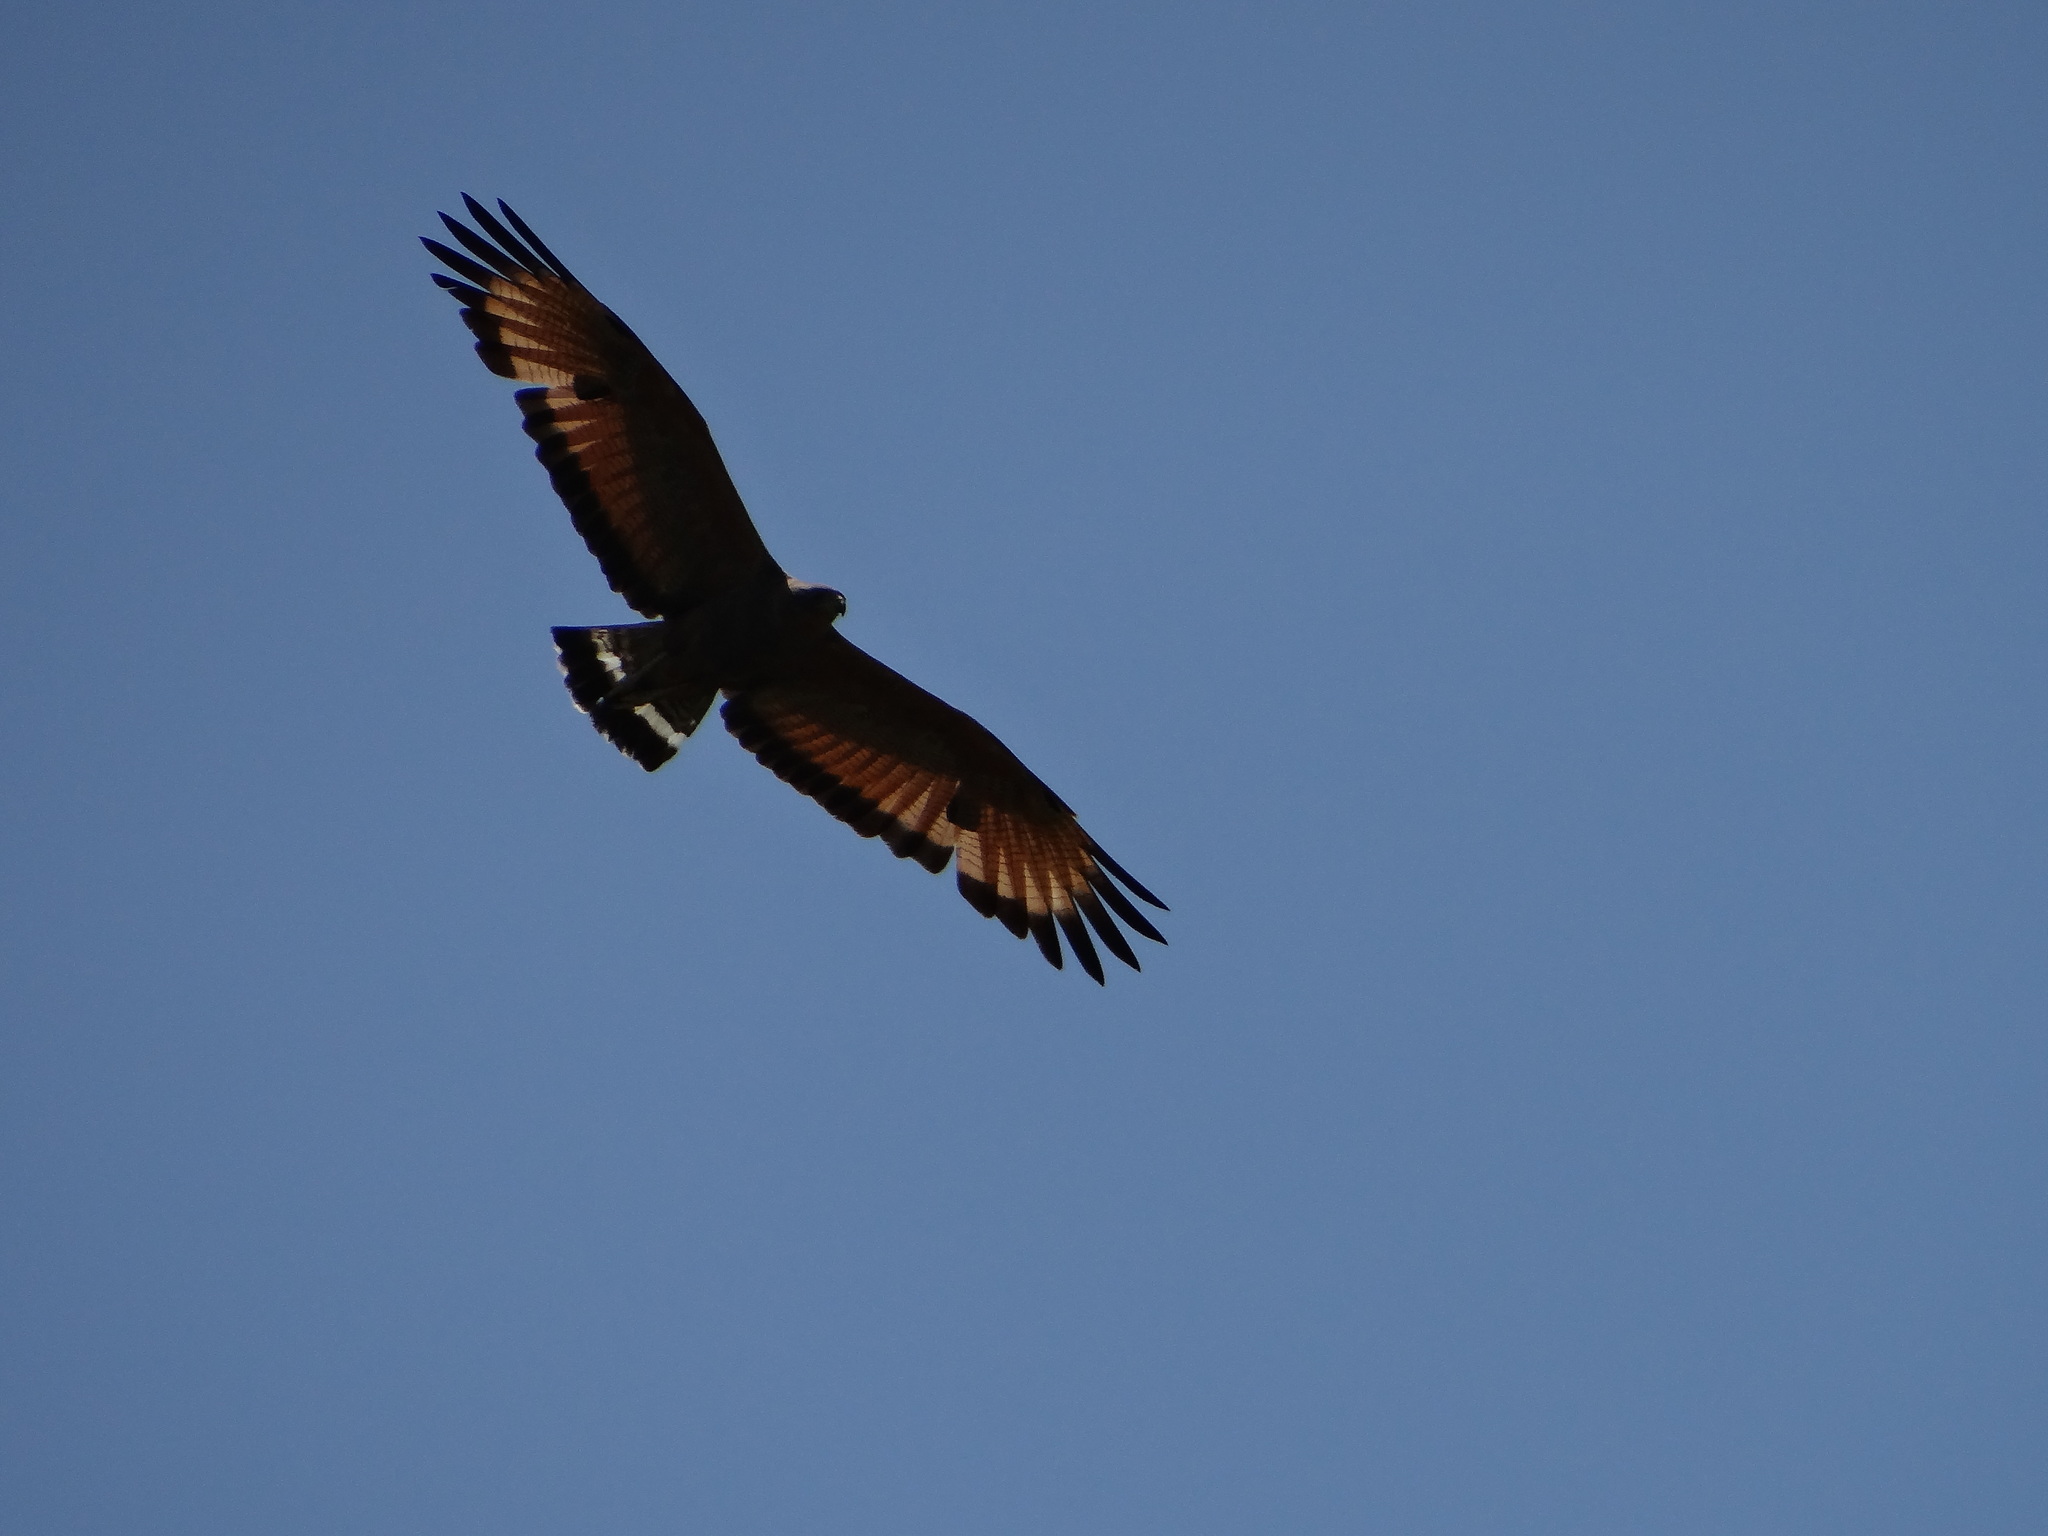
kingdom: Animalia
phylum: Chordata
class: Aves
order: Accipitriformes
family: Accipitridae
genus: Buteogallus
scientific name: Buteogallus meridionalis
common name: Savanna hawk
